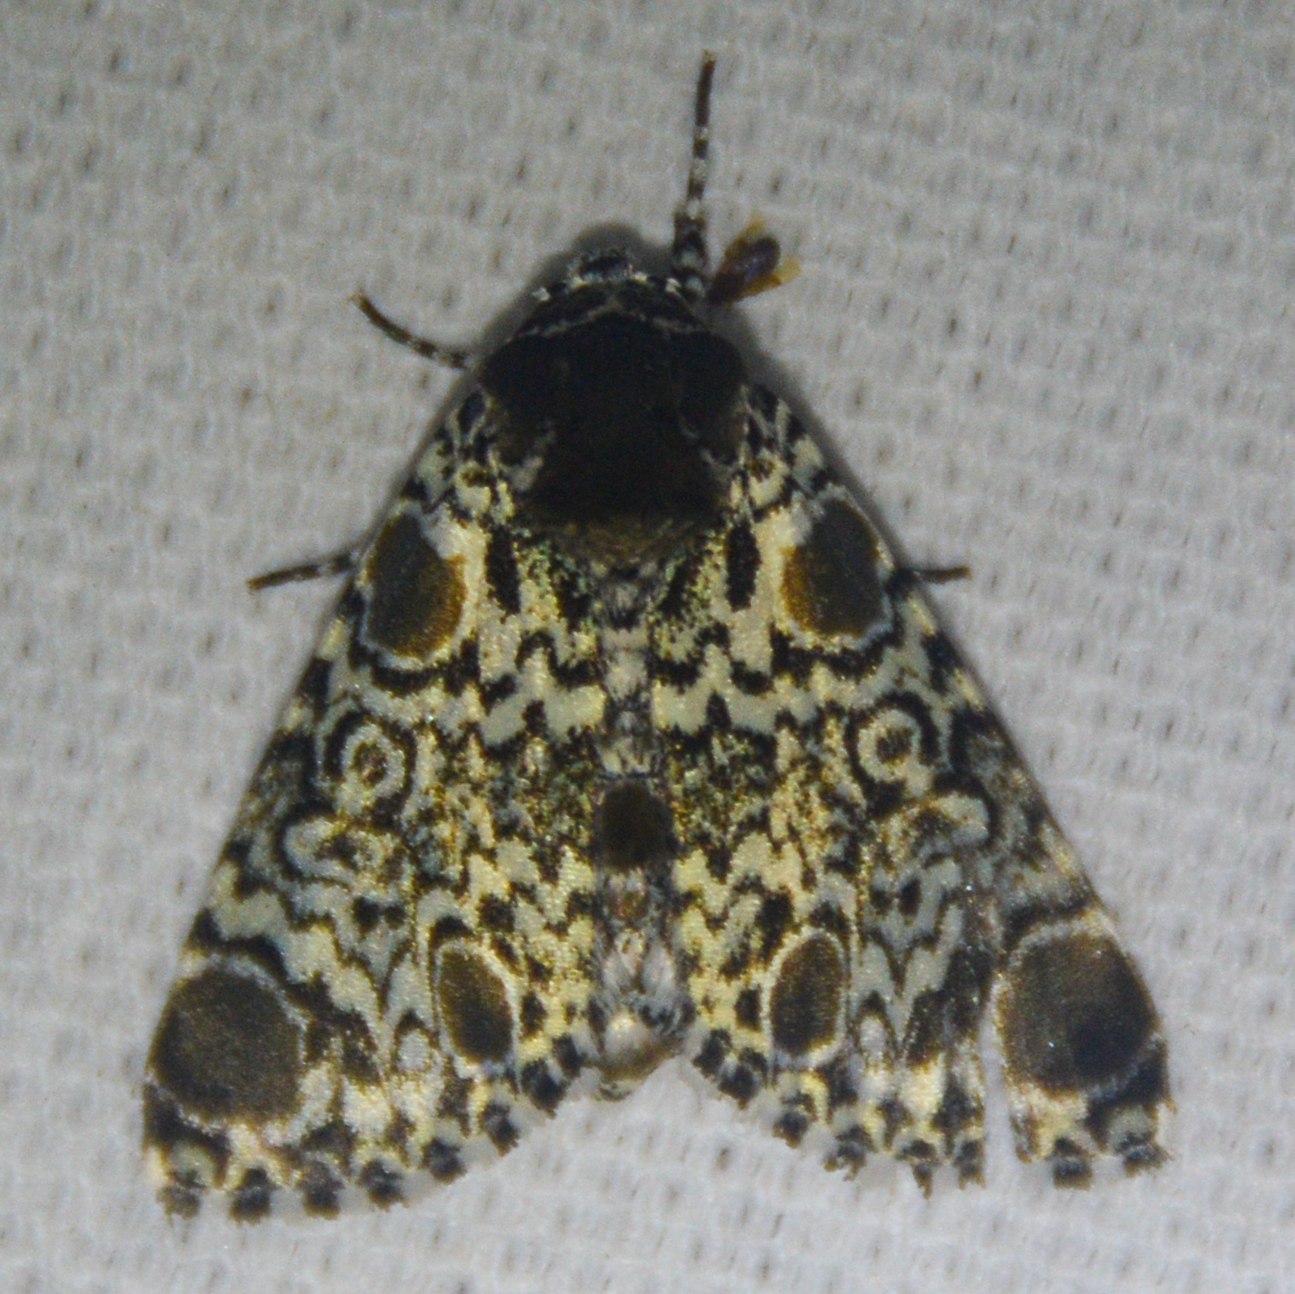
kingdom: Animalia
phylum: Arthropoda
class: Insecta
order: Lepidoptera
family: Noctuidae
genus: Harrisimemna
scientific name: Harrisimemna trisignata
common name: Harris threespot
